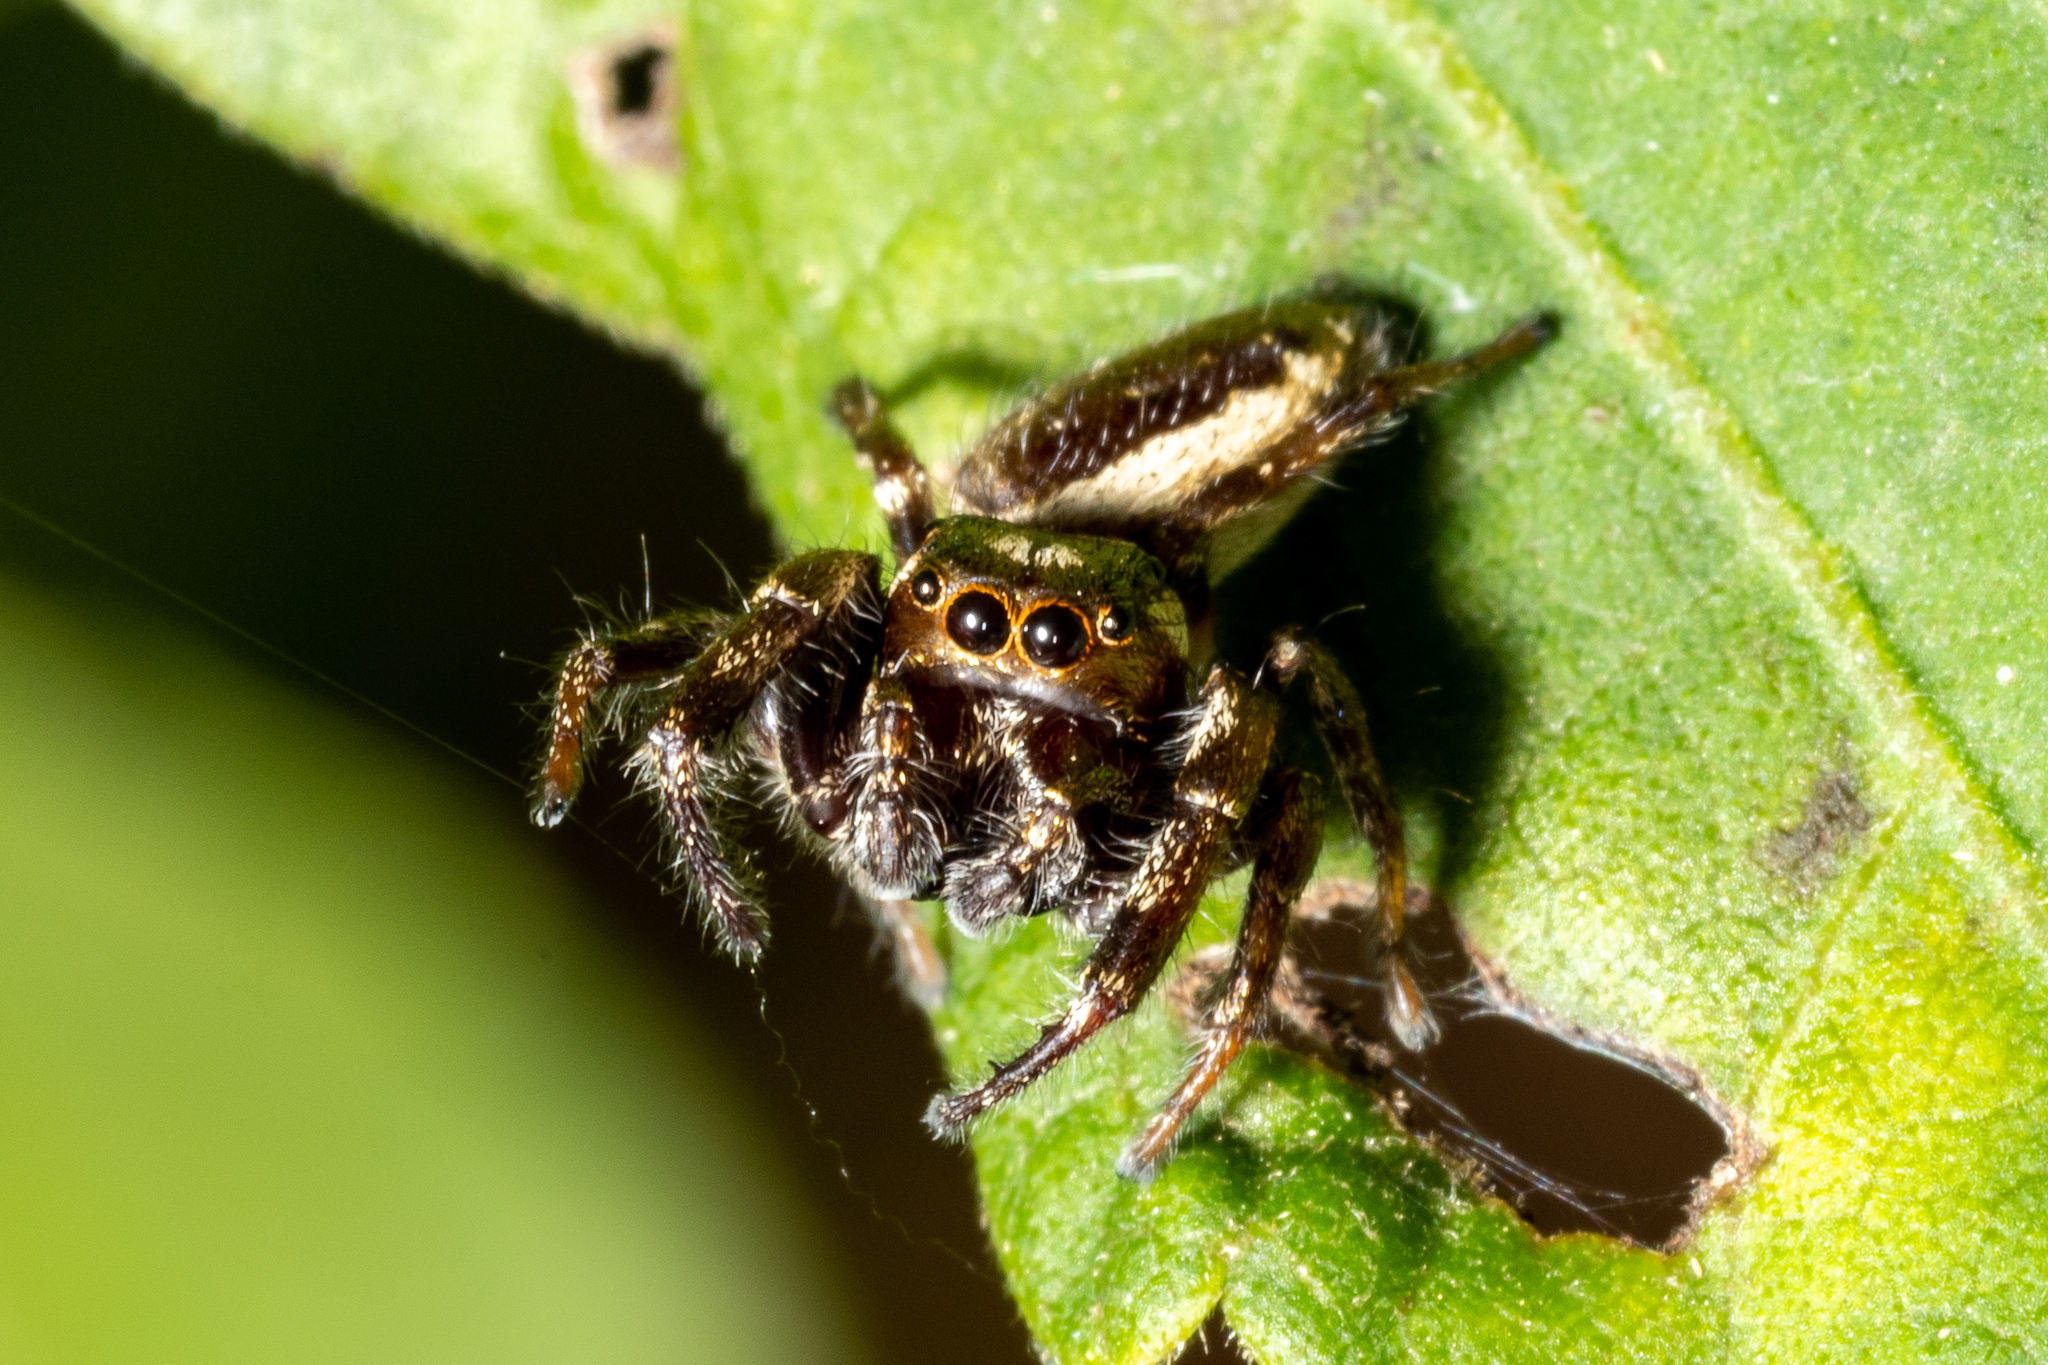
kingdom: Animalia
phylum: Arthropoda
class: Arachnida
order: Araneae
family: Salticidae
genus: Eris
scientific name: Eris militaris
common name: Bronze jumper
